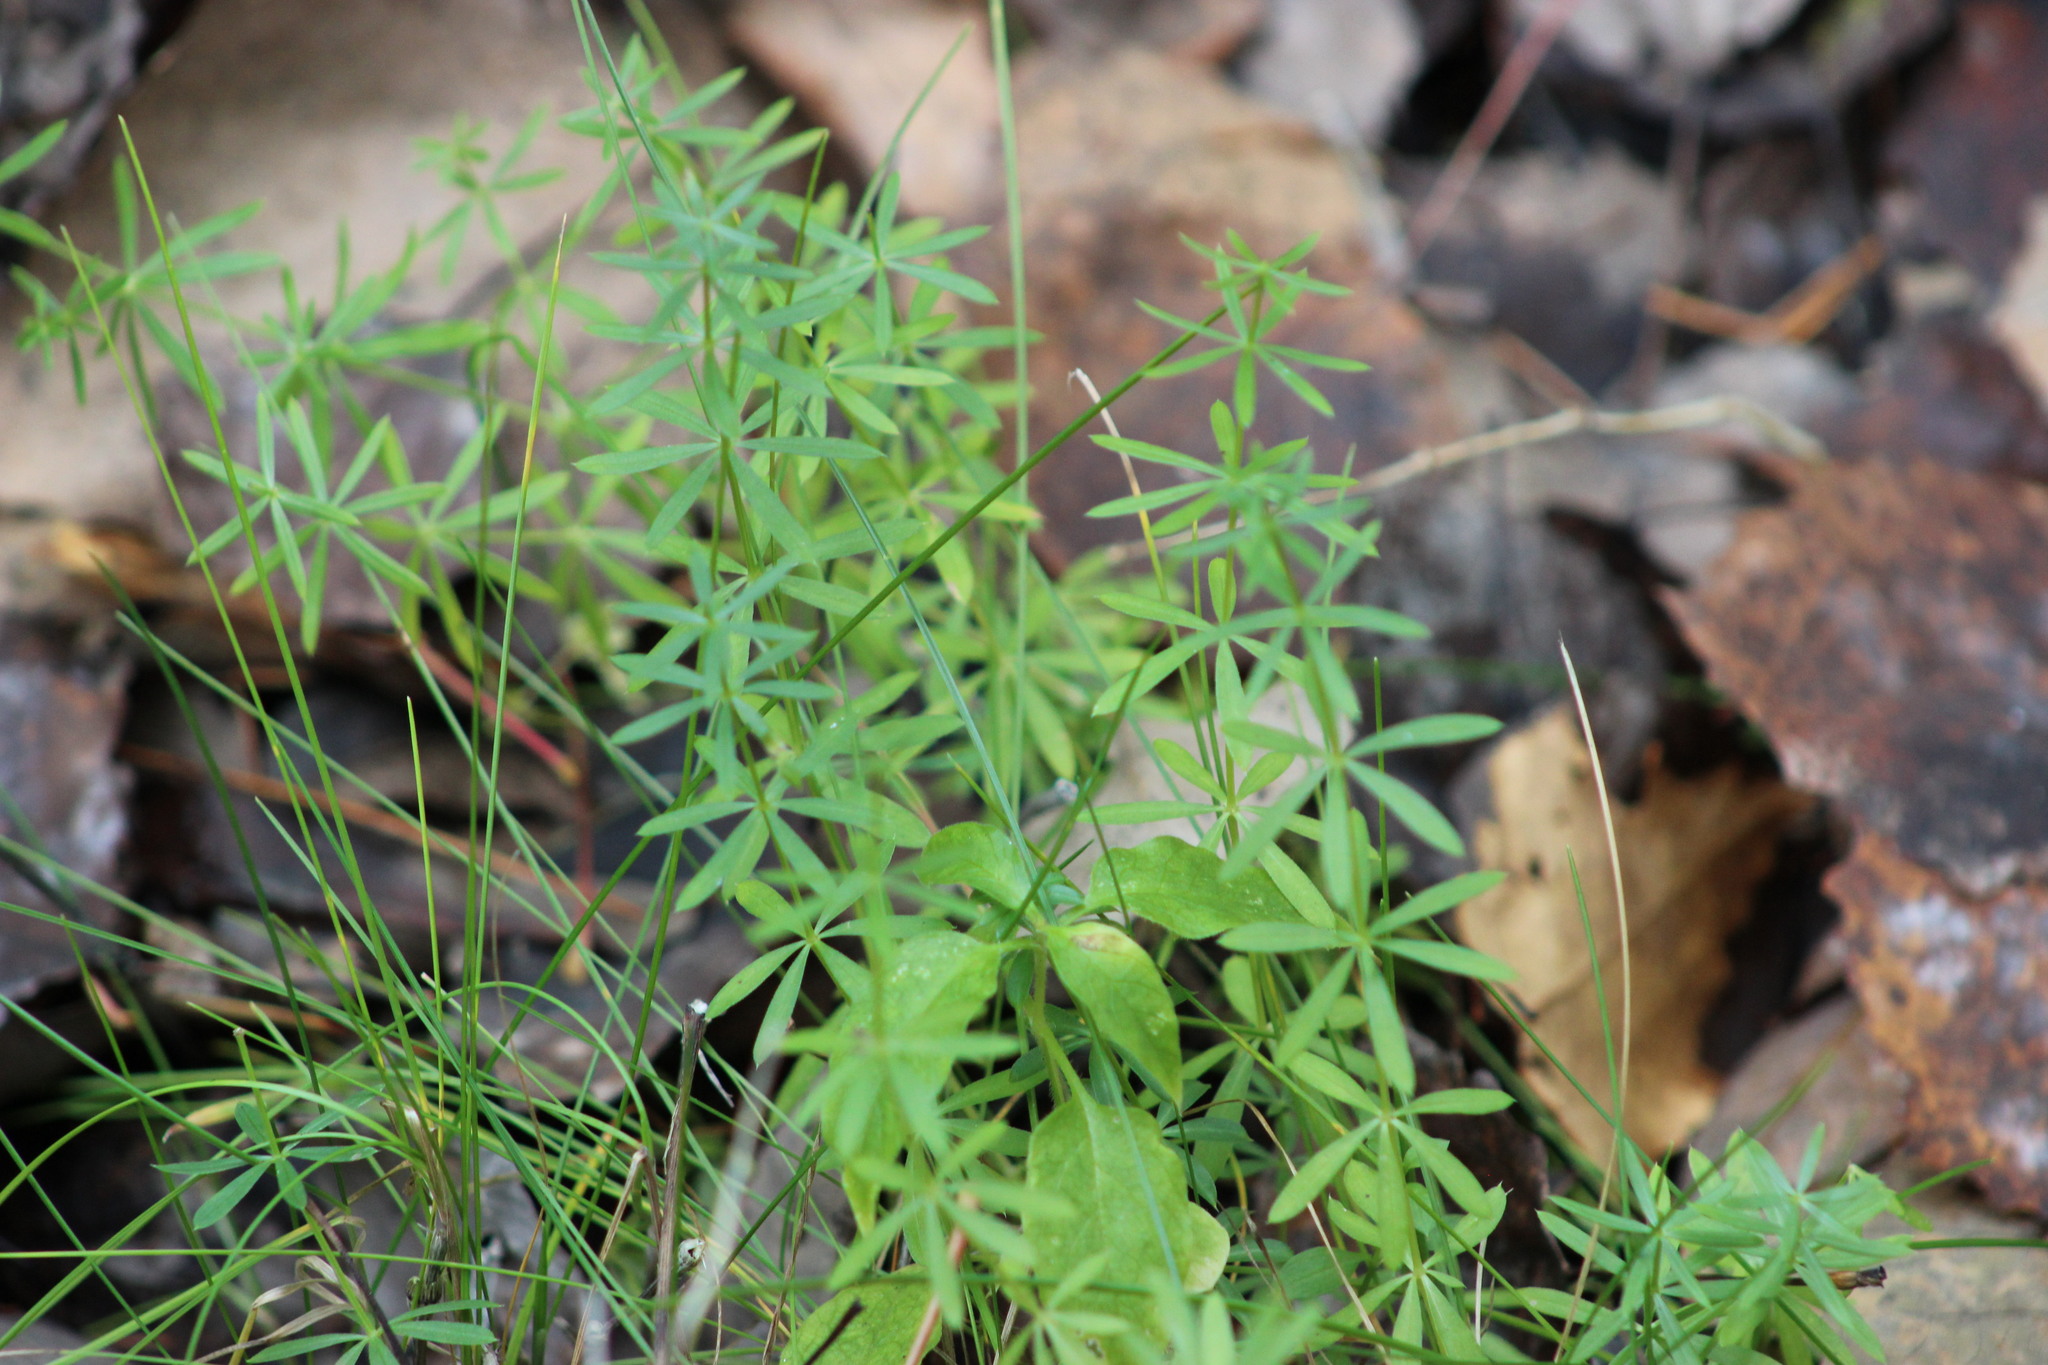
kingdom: Plantae
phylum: Tracheophyta
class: Magnoliopsida
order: Gentianales
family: Rubiaceae
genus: Galium
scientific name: Galium mollugo
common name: Hedge bedstraw
